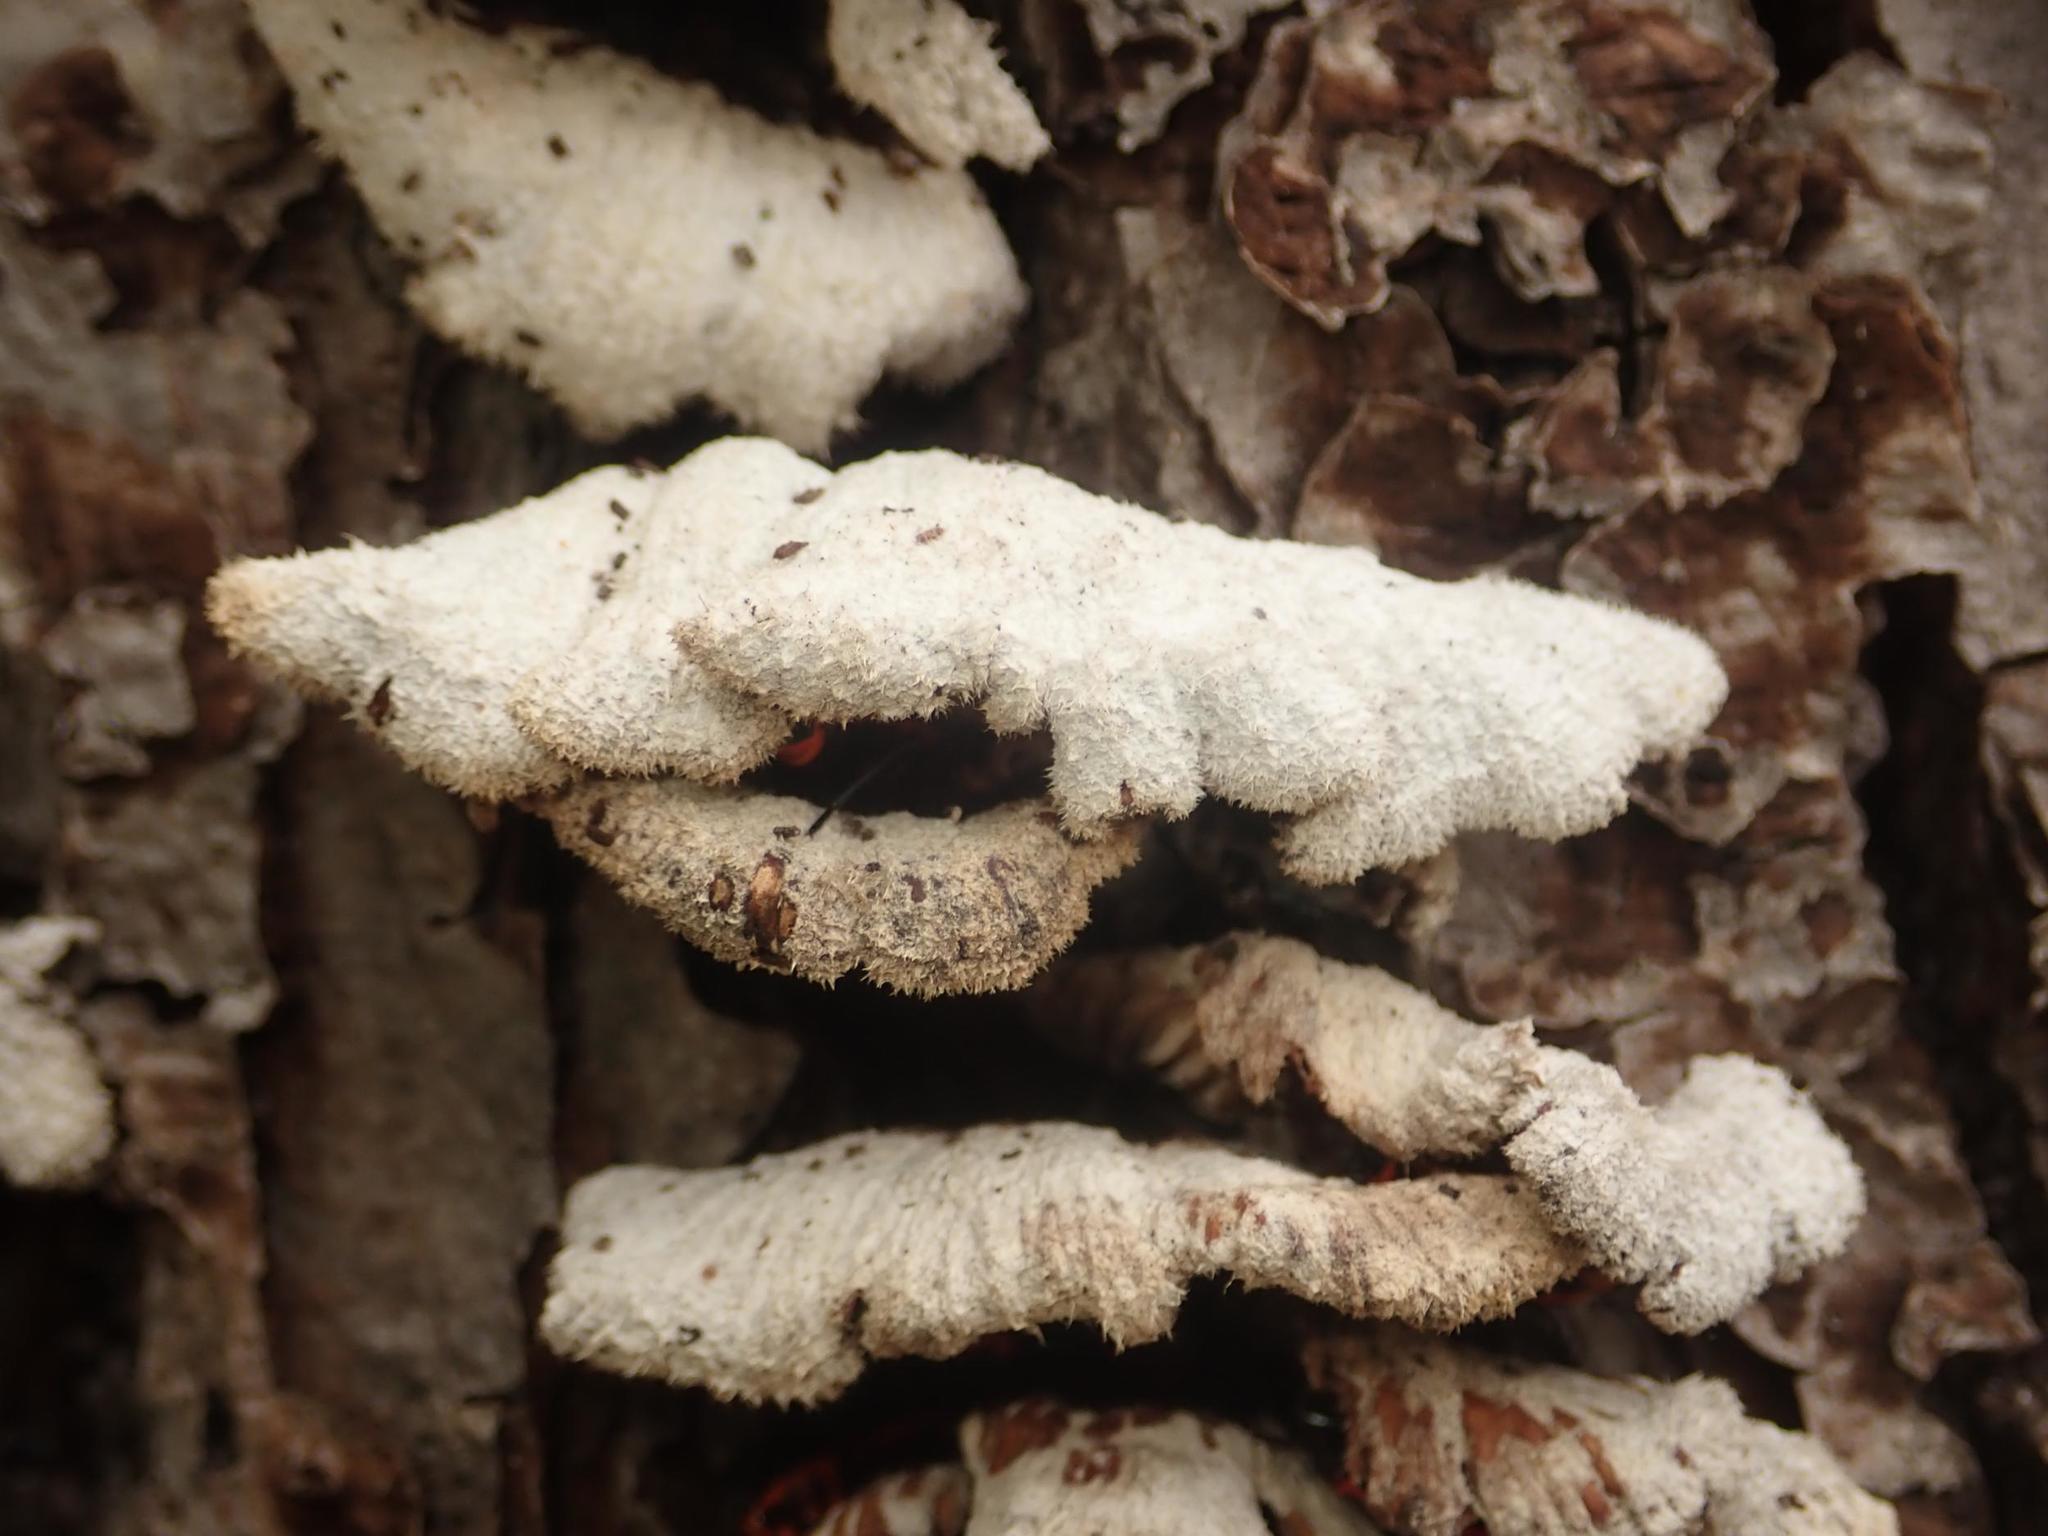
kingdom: Fungi
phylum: Basidiomycota
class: Agaricomycetes
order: Agaricales
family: Schizophyllaceae
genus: Schizophyllum
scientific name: Schizophyllum commune
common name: Common porecrust
